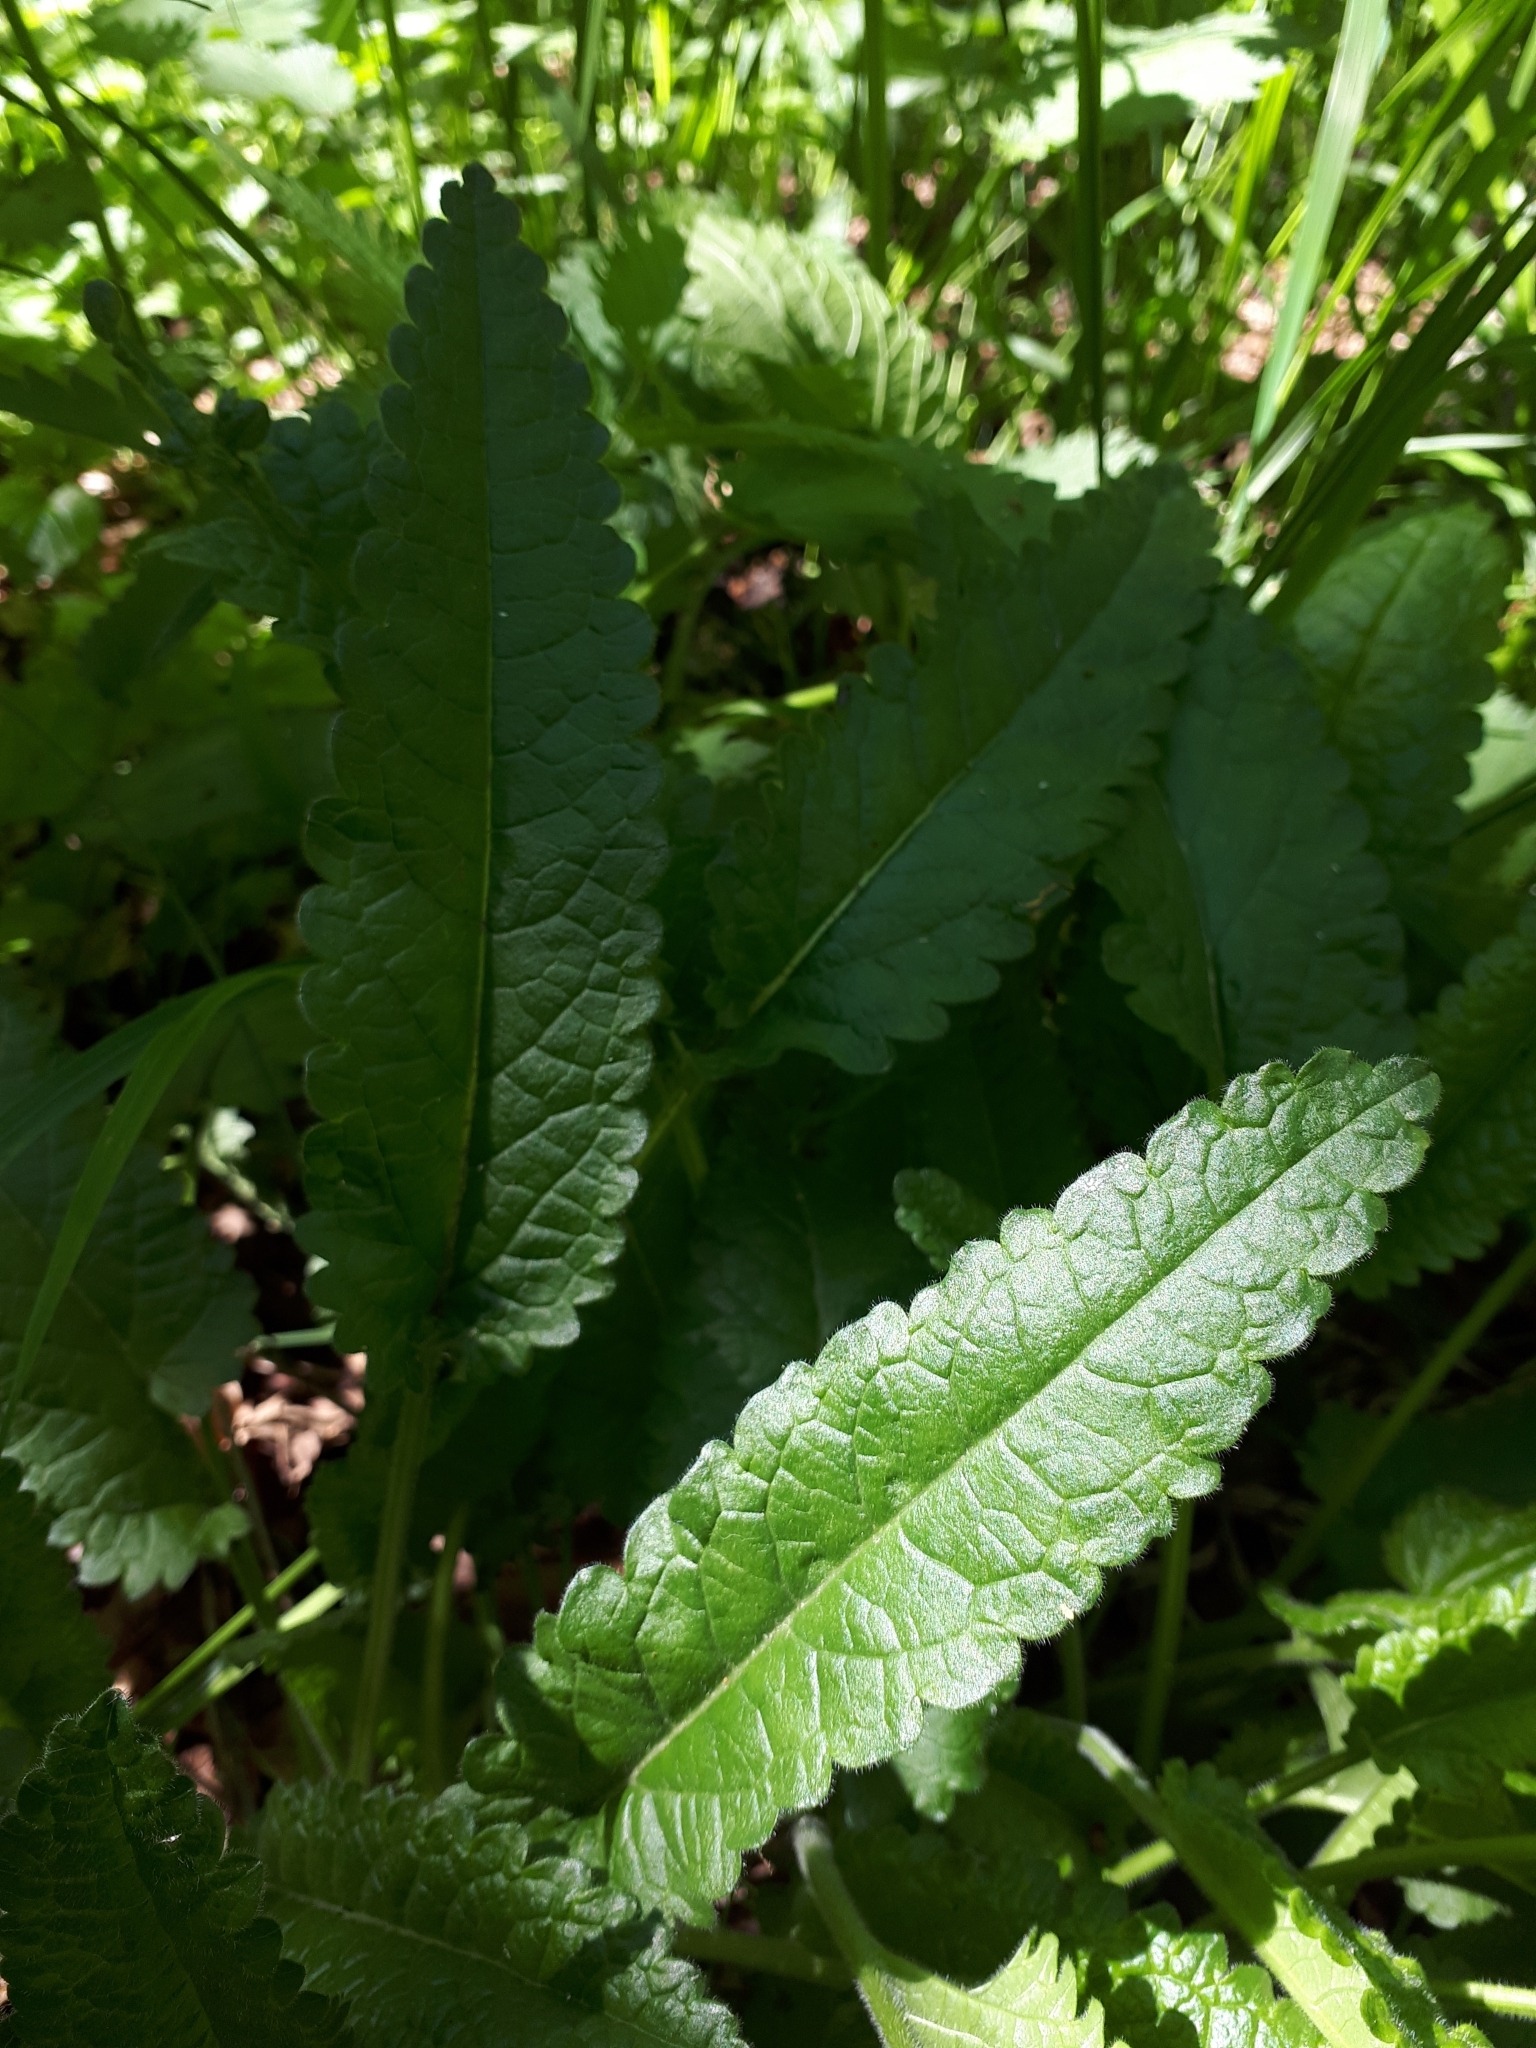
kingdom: Plantae
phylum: Tracheophyta
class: Magnoliopsida
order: Lamiales
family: Lamiaceae
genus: Betonica
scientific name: Betonica officinalis
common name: Bishop's-wort
